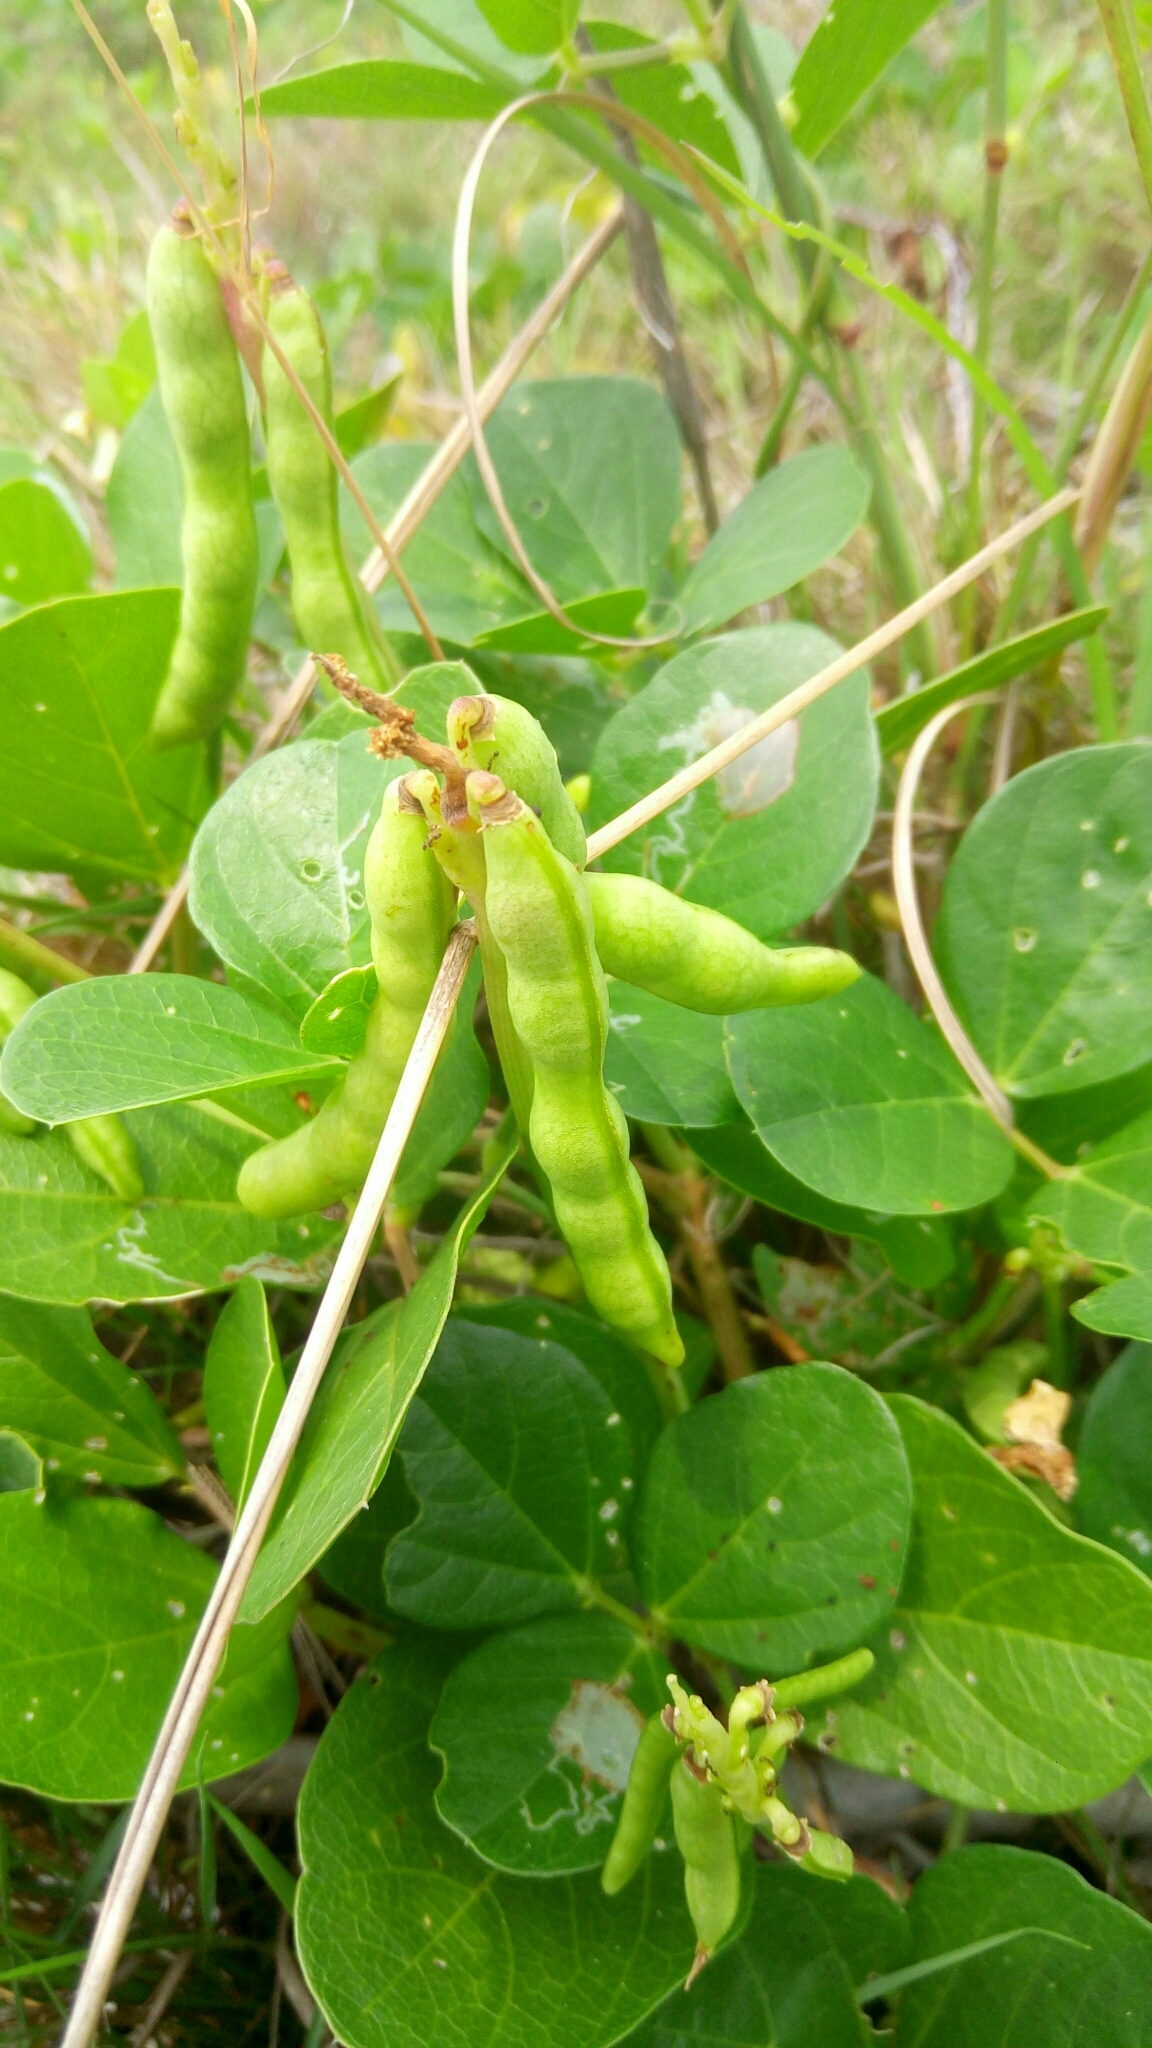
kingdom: Plantae
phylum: Tracheophyta
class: Magnoliopsida
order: Fabales
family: Fabaceae
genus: Vigna
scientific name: Vigna marina
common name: Dune-bean
